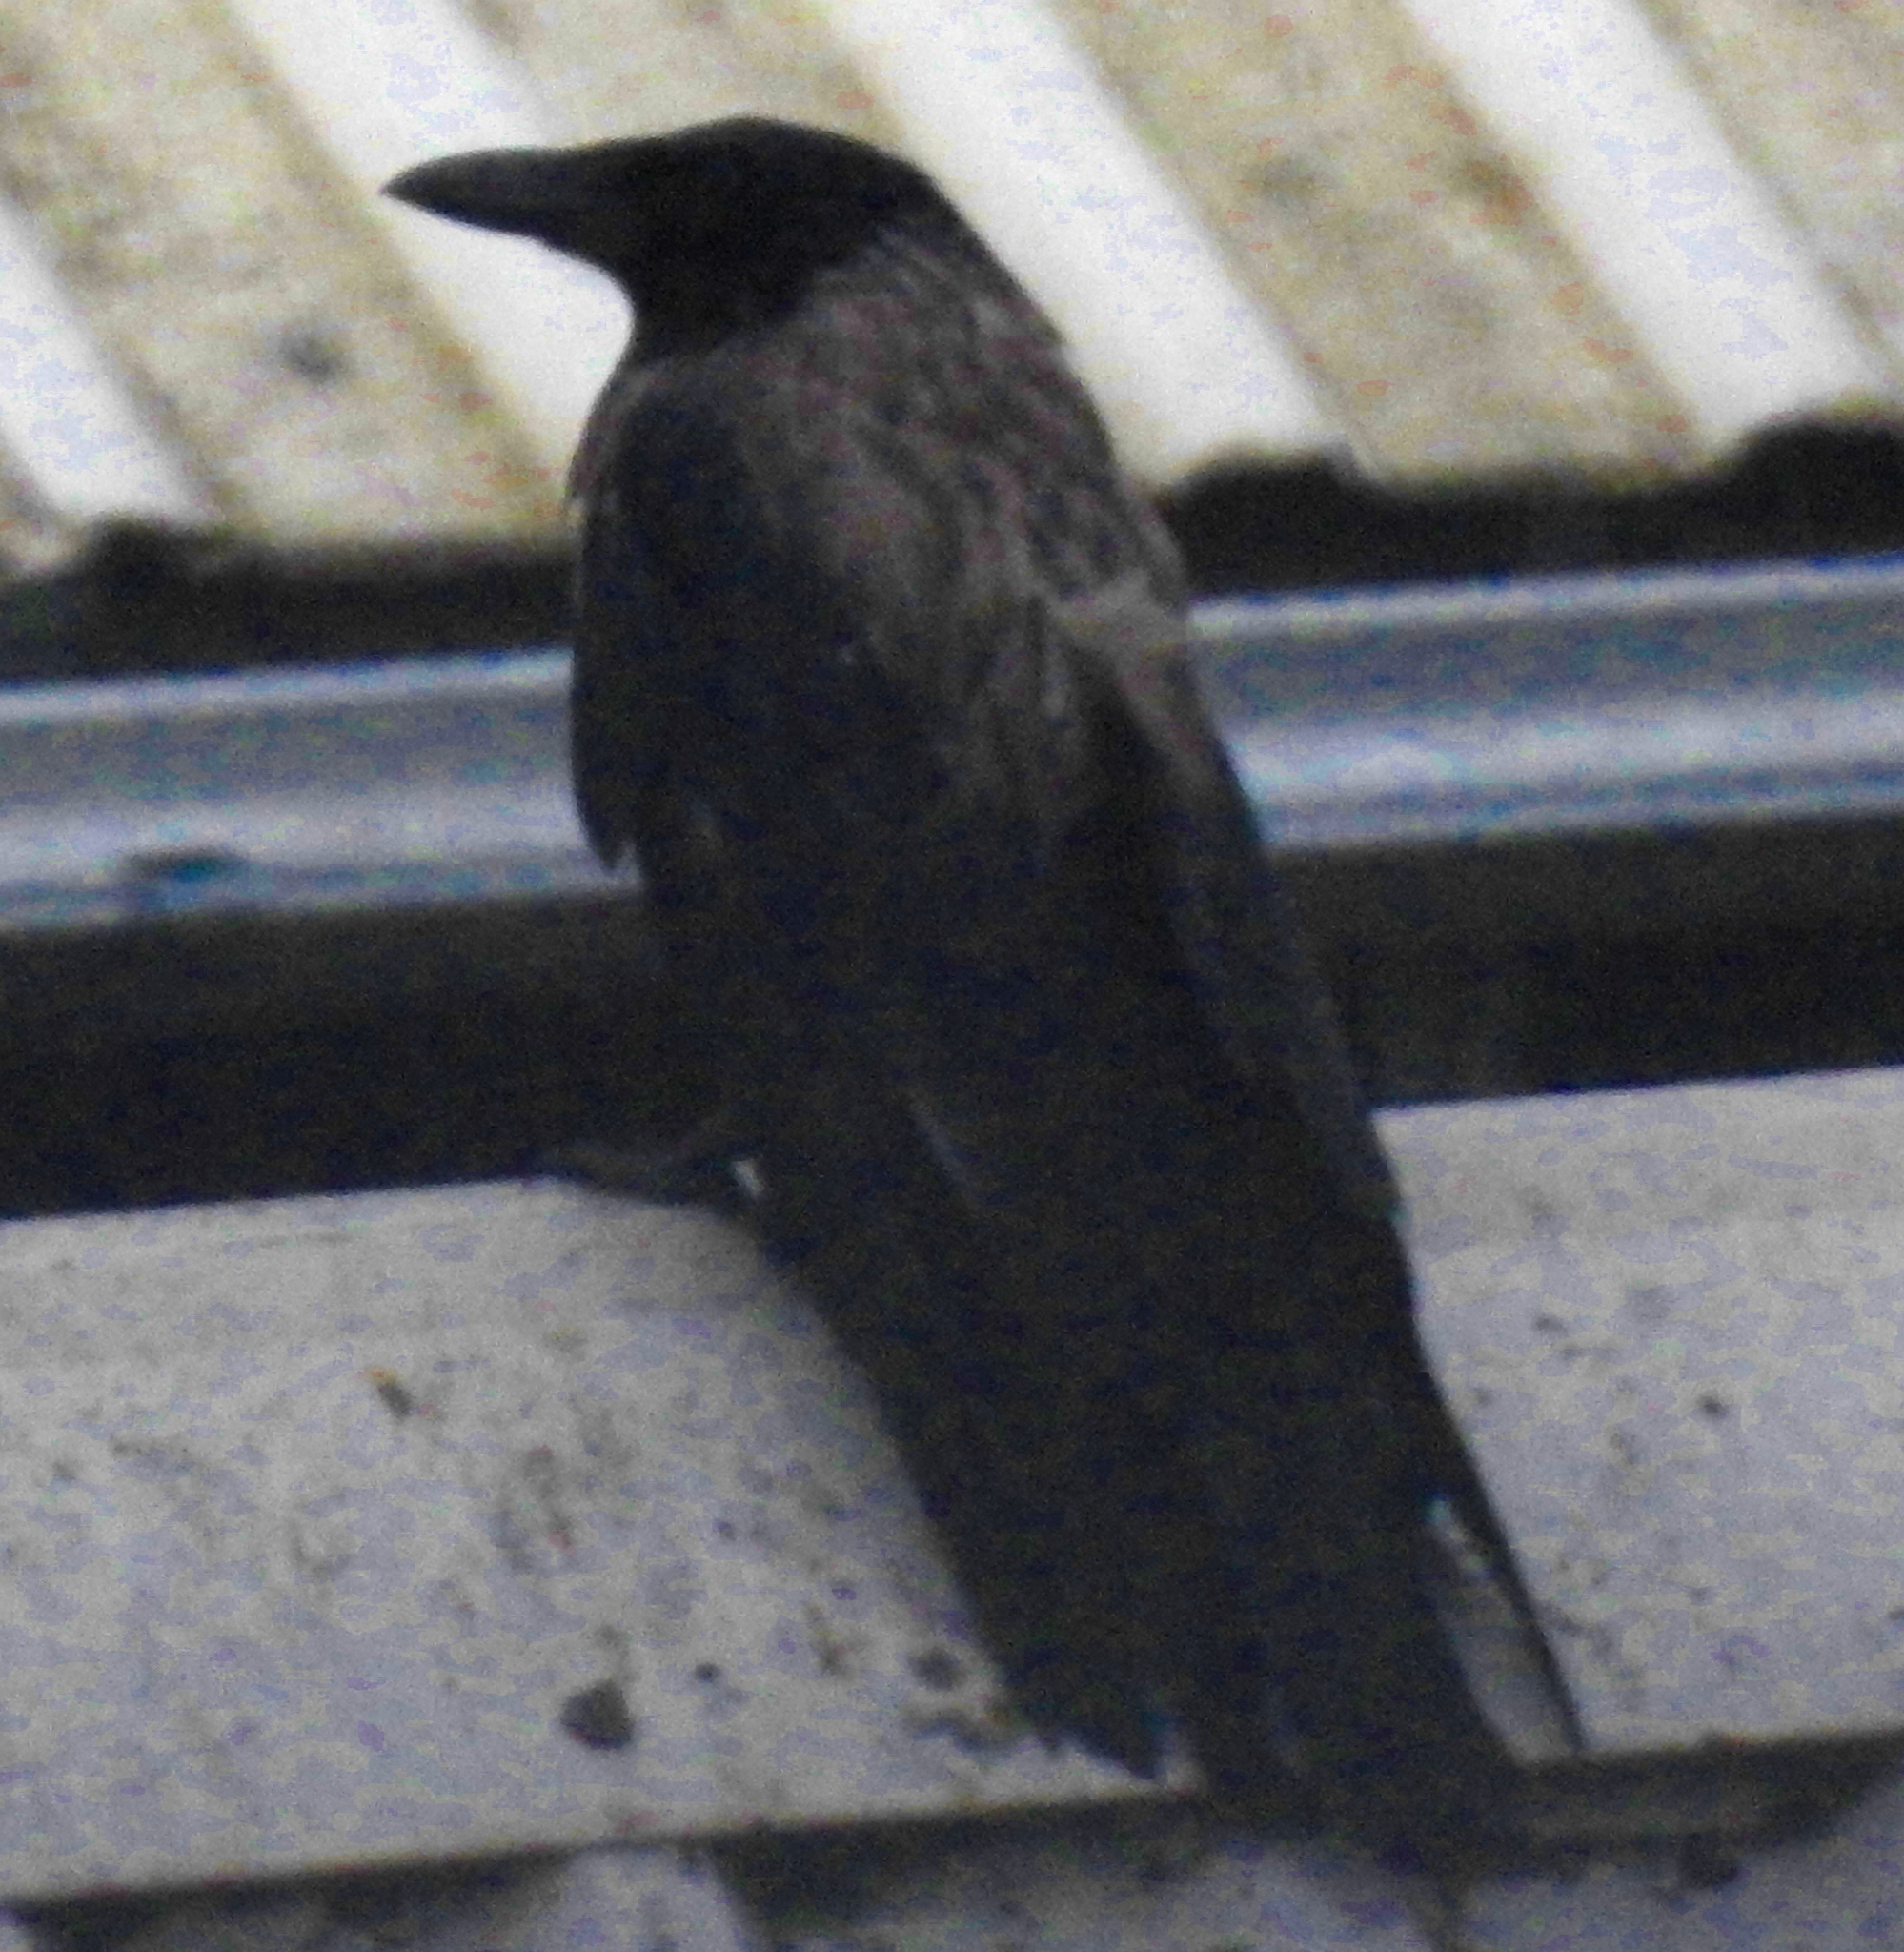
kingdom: Animalia
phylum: Chordata
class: Aves
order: Passeriformes
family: Corvidae
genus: Corvus
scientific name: Corvus cornix
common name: Hooded crow
